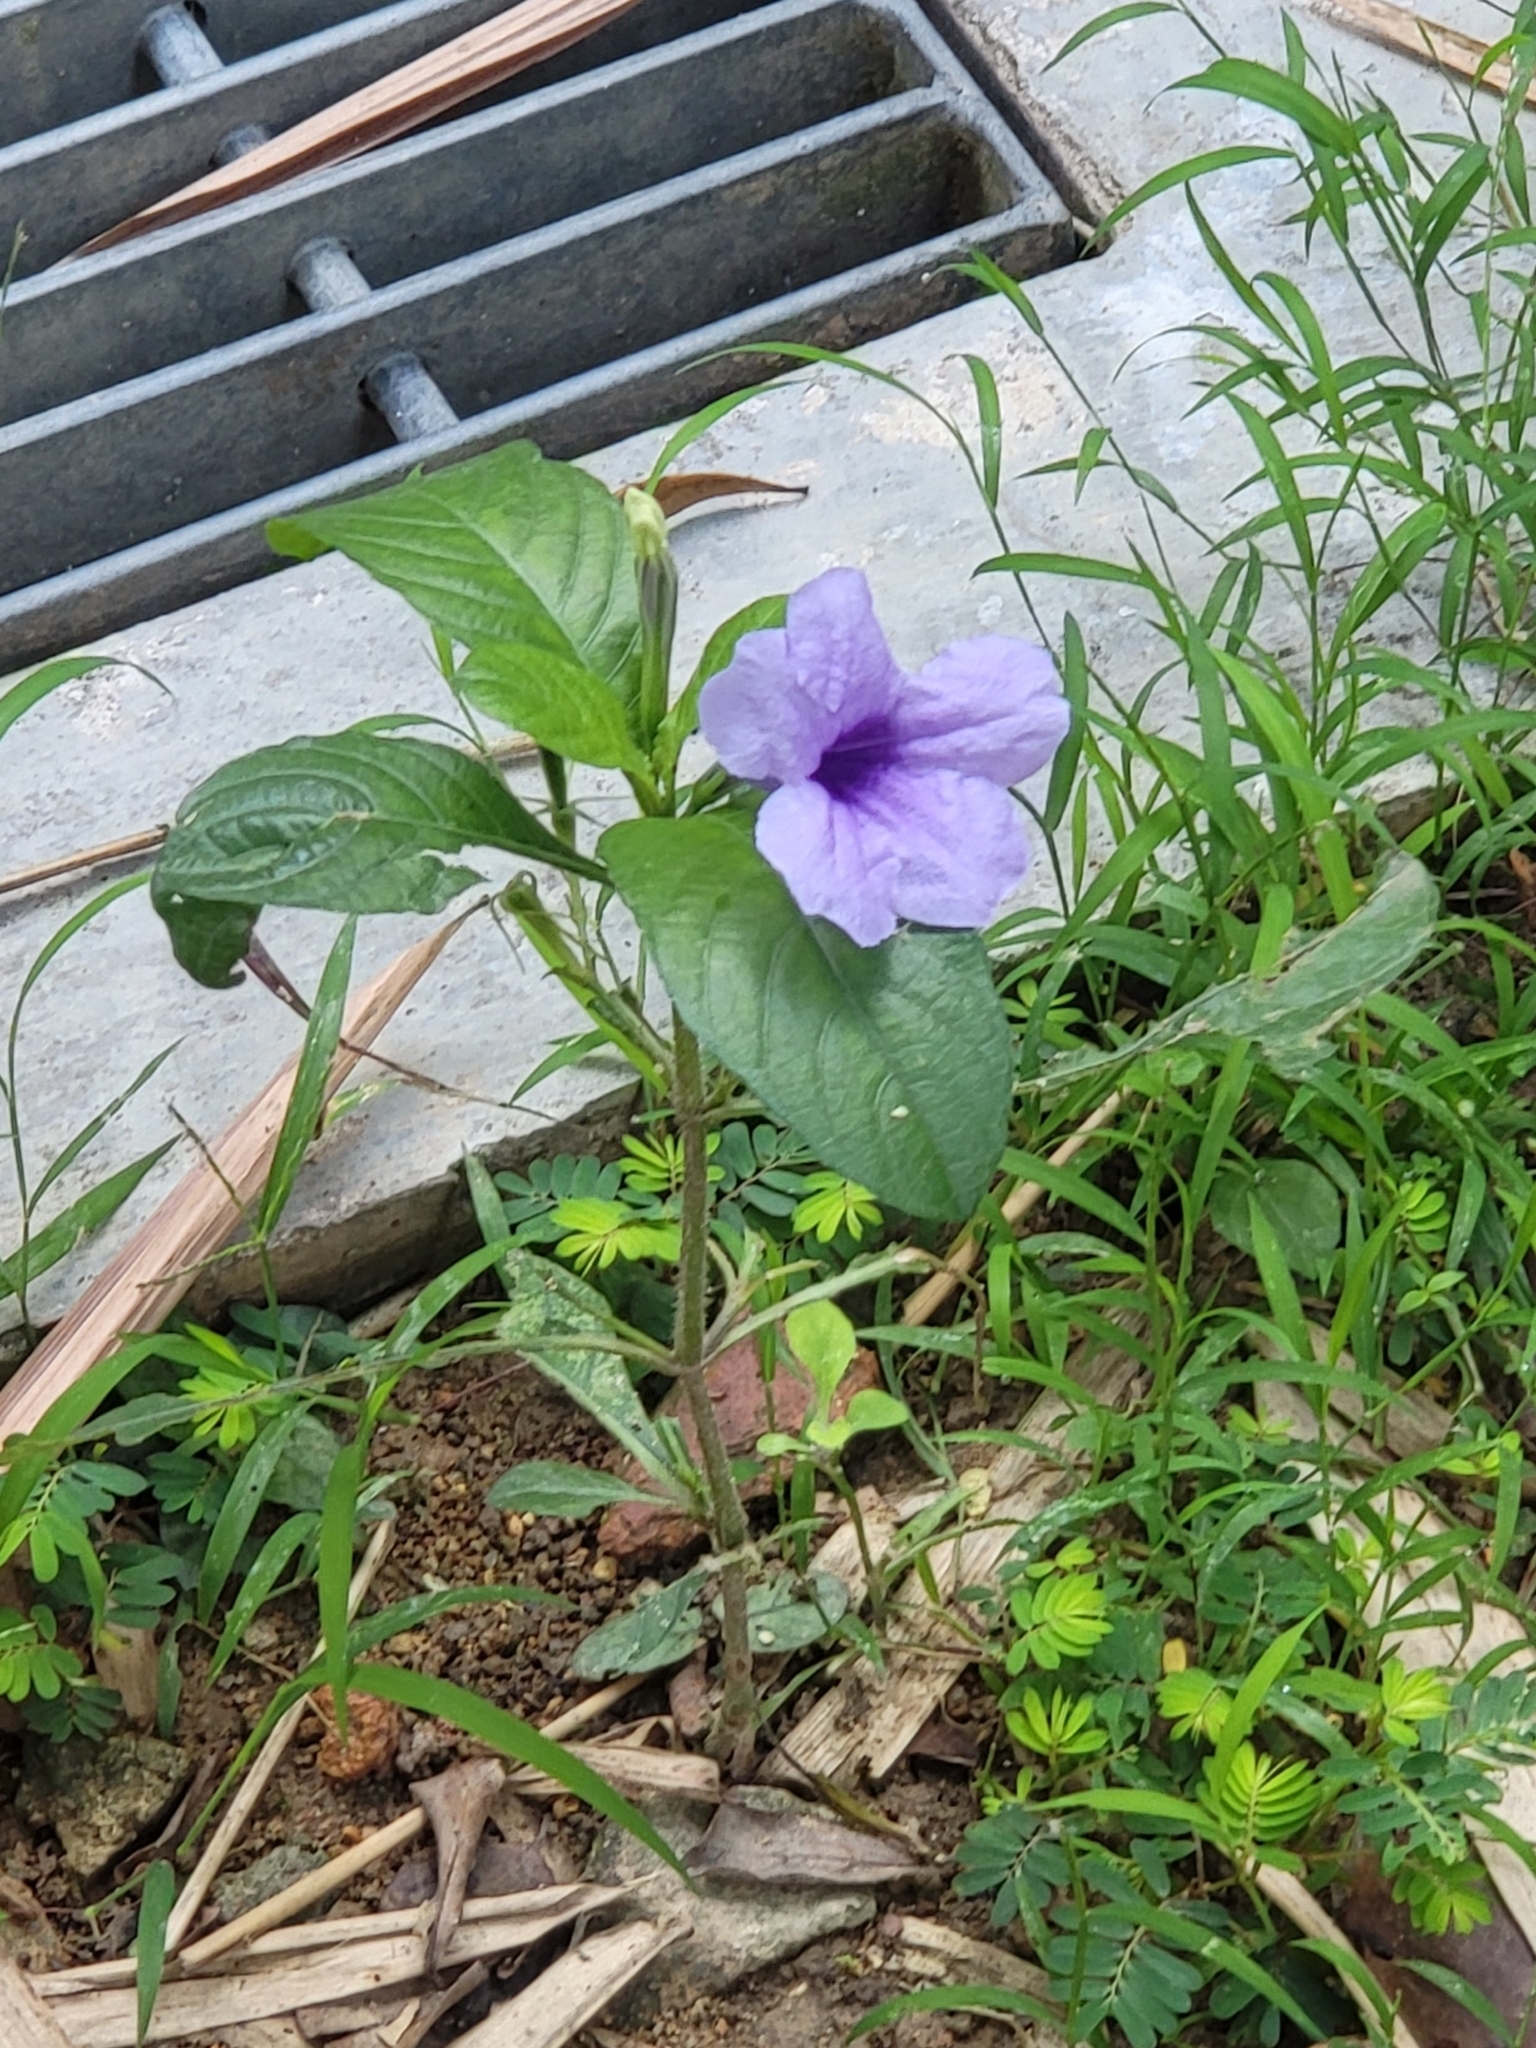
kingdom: Plantae
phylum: Tracheophyta
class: Magnoliopsida
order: Lamiales
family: Acanthaceae
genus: Ruellia
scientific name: Ruellia tuberosa
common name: Devil's bit
